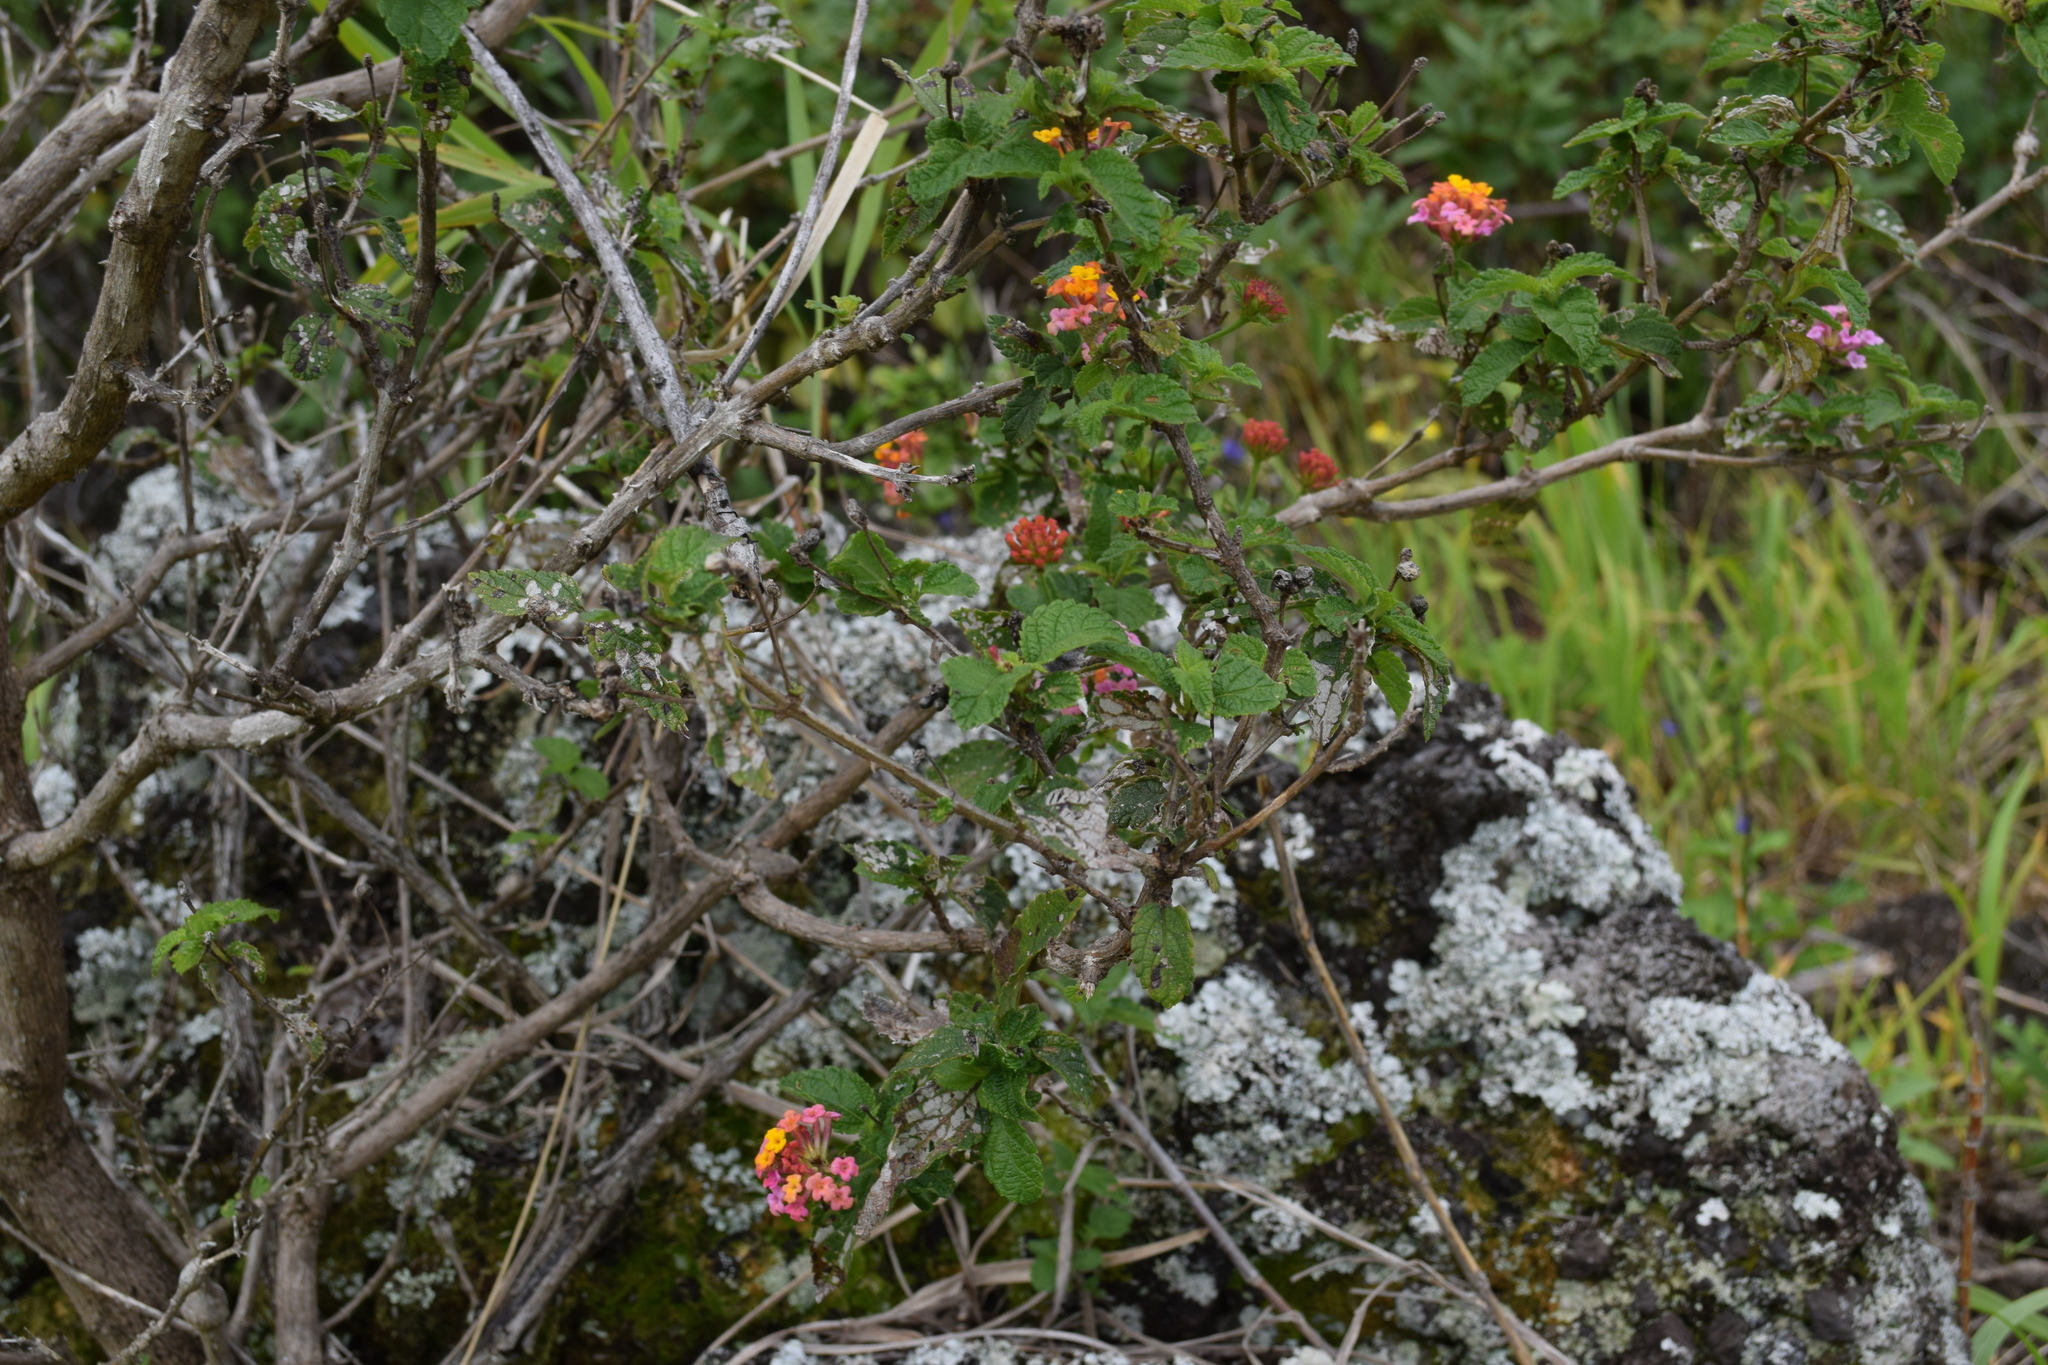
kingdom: Plantae
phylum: Tracheophyta
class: Magnoliopsida
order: Lamiales
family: Verbenaceae
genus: Lantana
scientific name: Lantana camara
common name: Lantana
